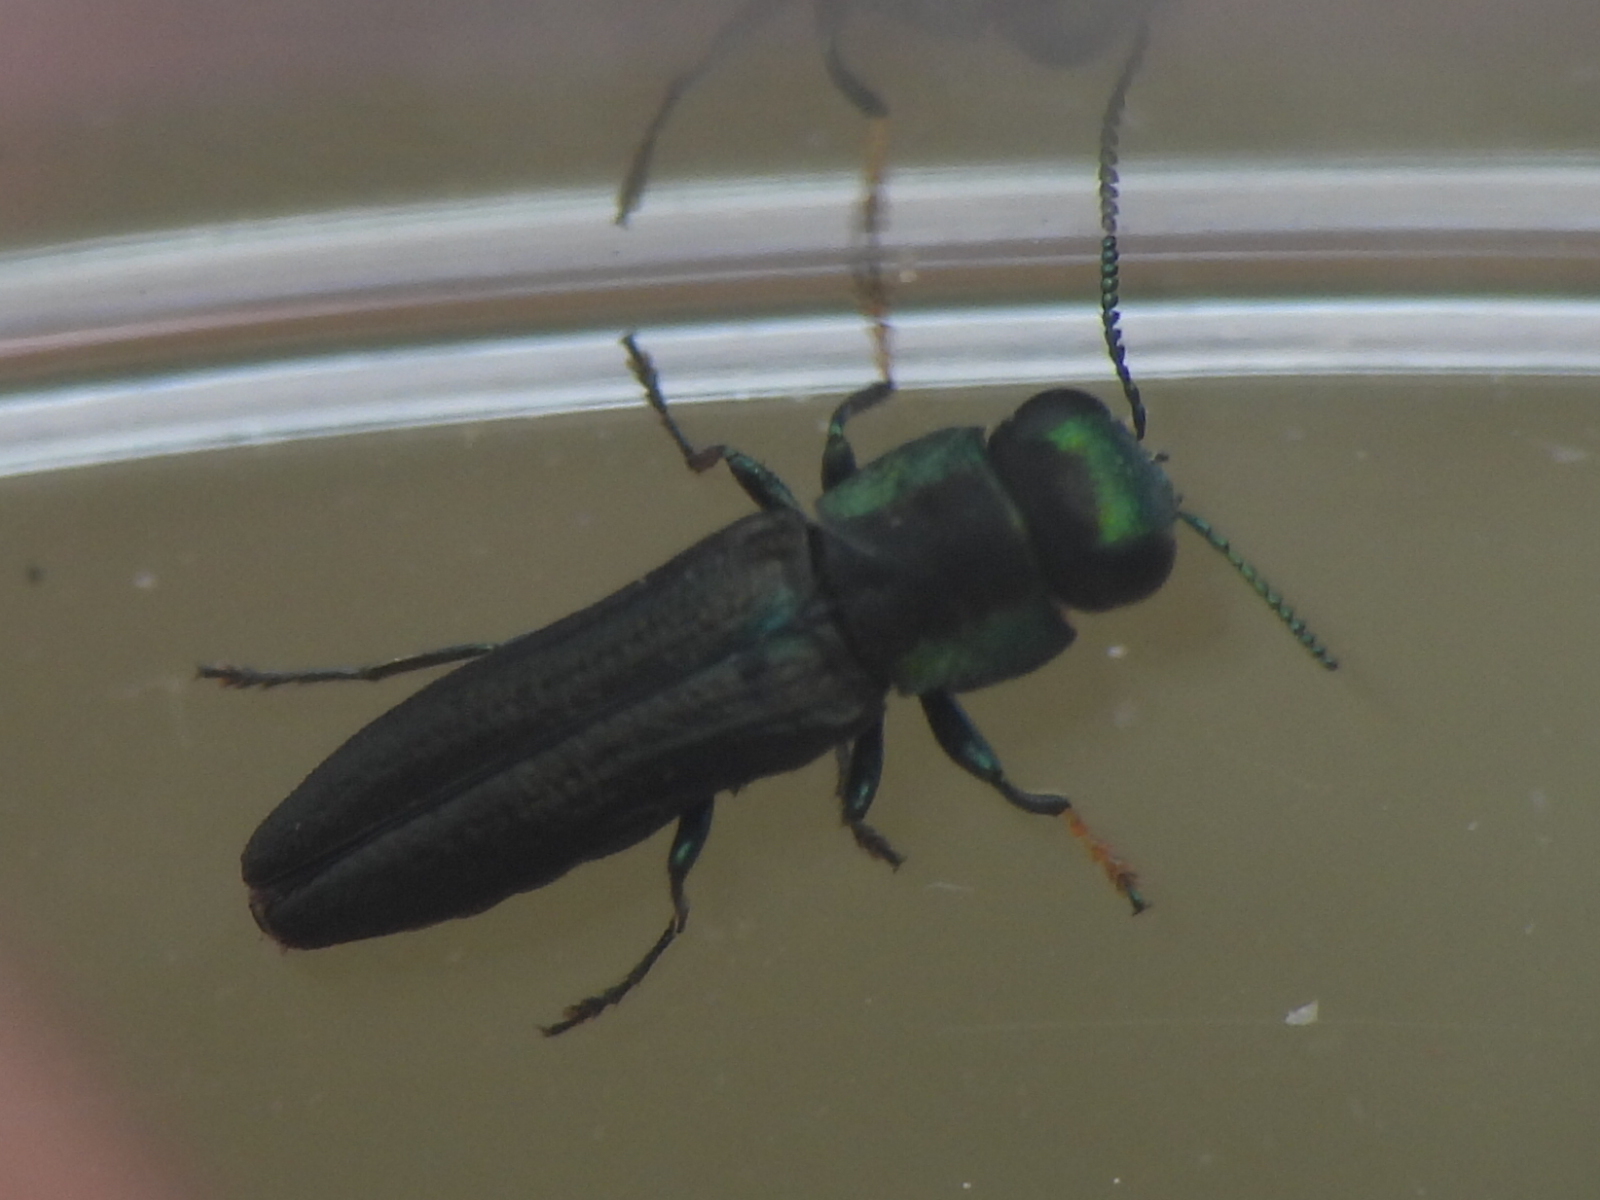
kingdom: Animalia
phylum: Arthropoda
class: Insecta
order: Coleoptera
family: Buprestidae
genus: Agrilaxia
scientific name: Agrilaxia flavimana
